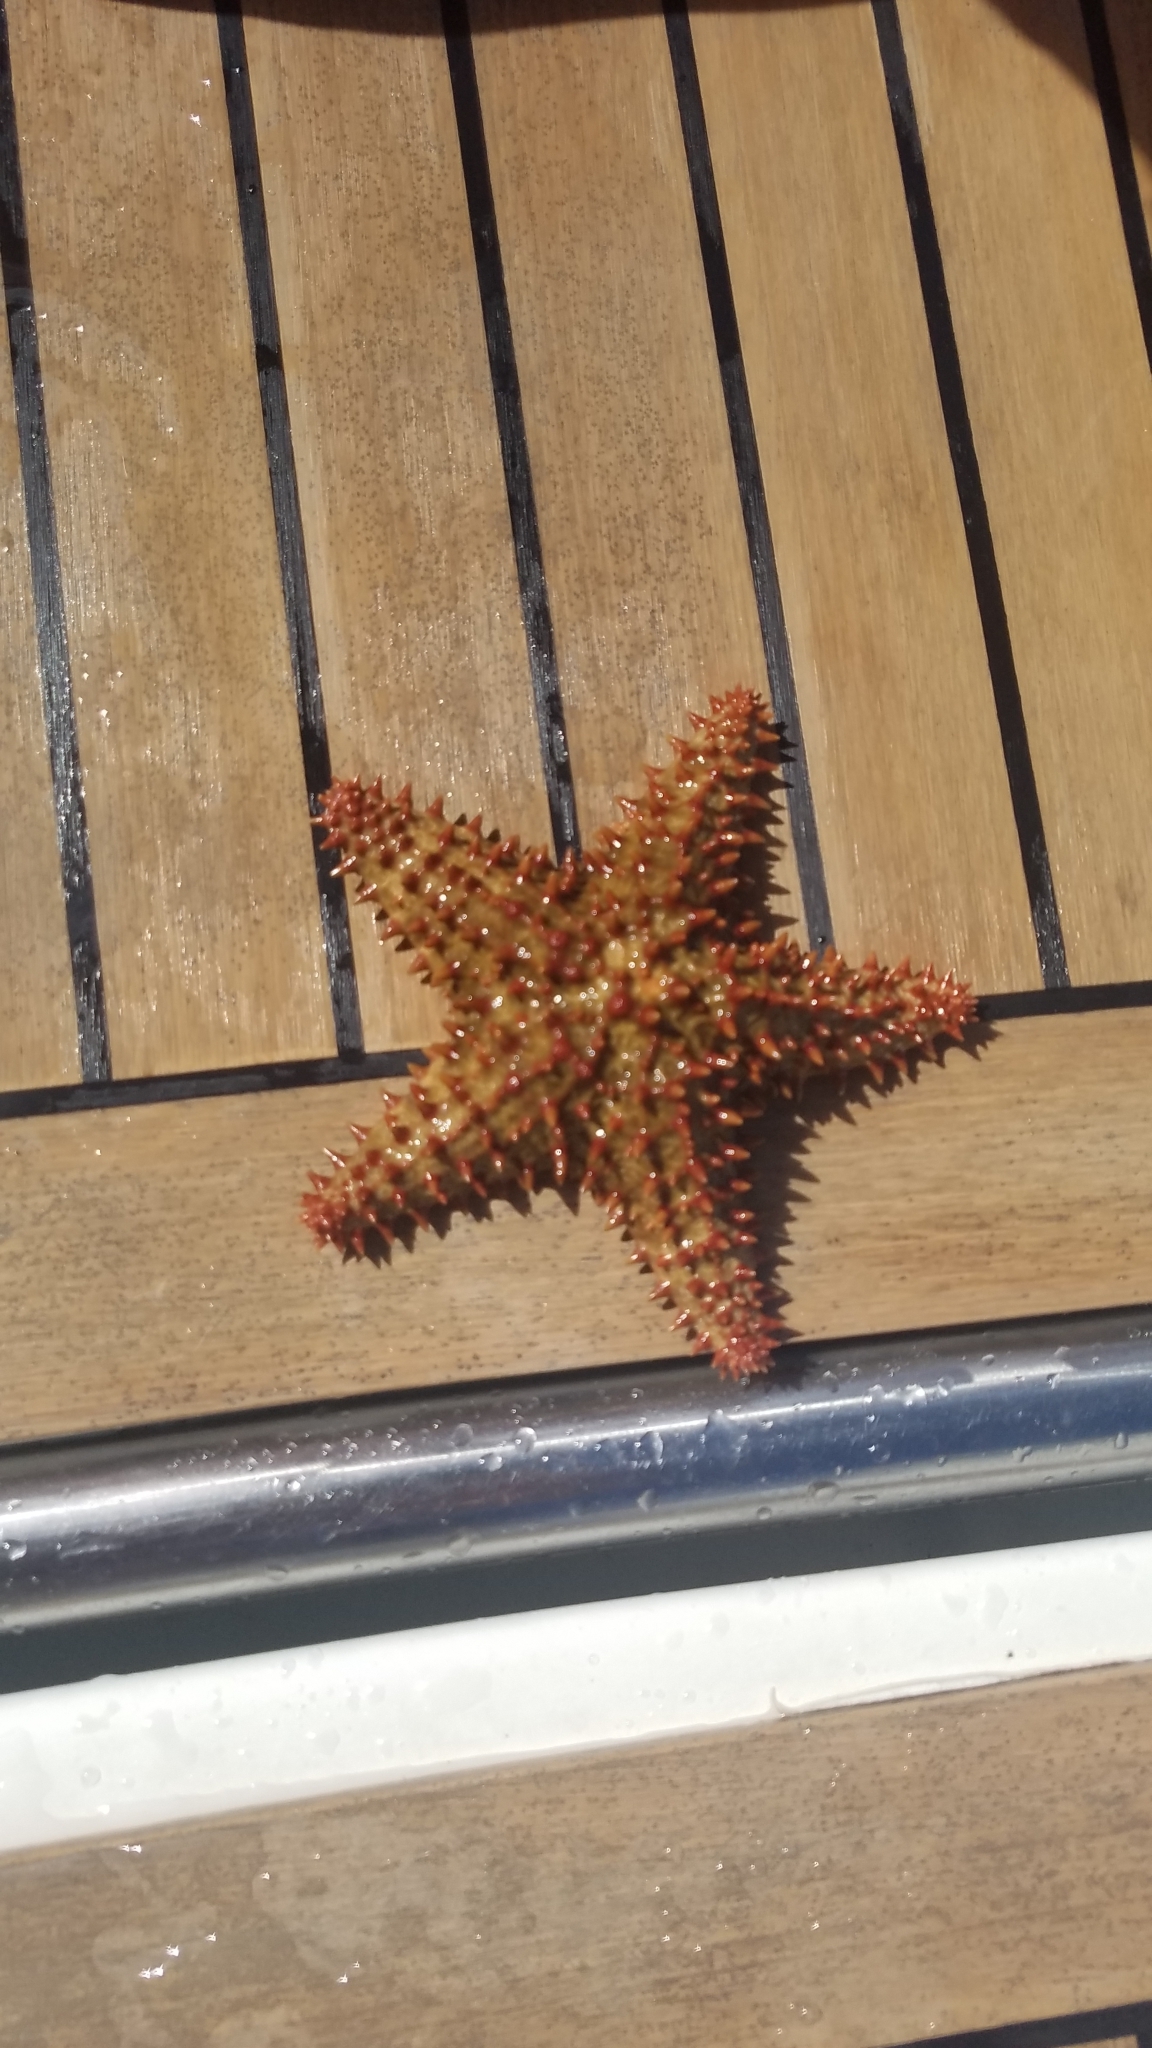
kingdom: Animalia
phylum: Echinodermata
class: Asteroidea
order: Valvatida
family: Oreasteridae
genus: Oreaster
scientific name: Oreaster reticulatus
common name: Cushion sea star
